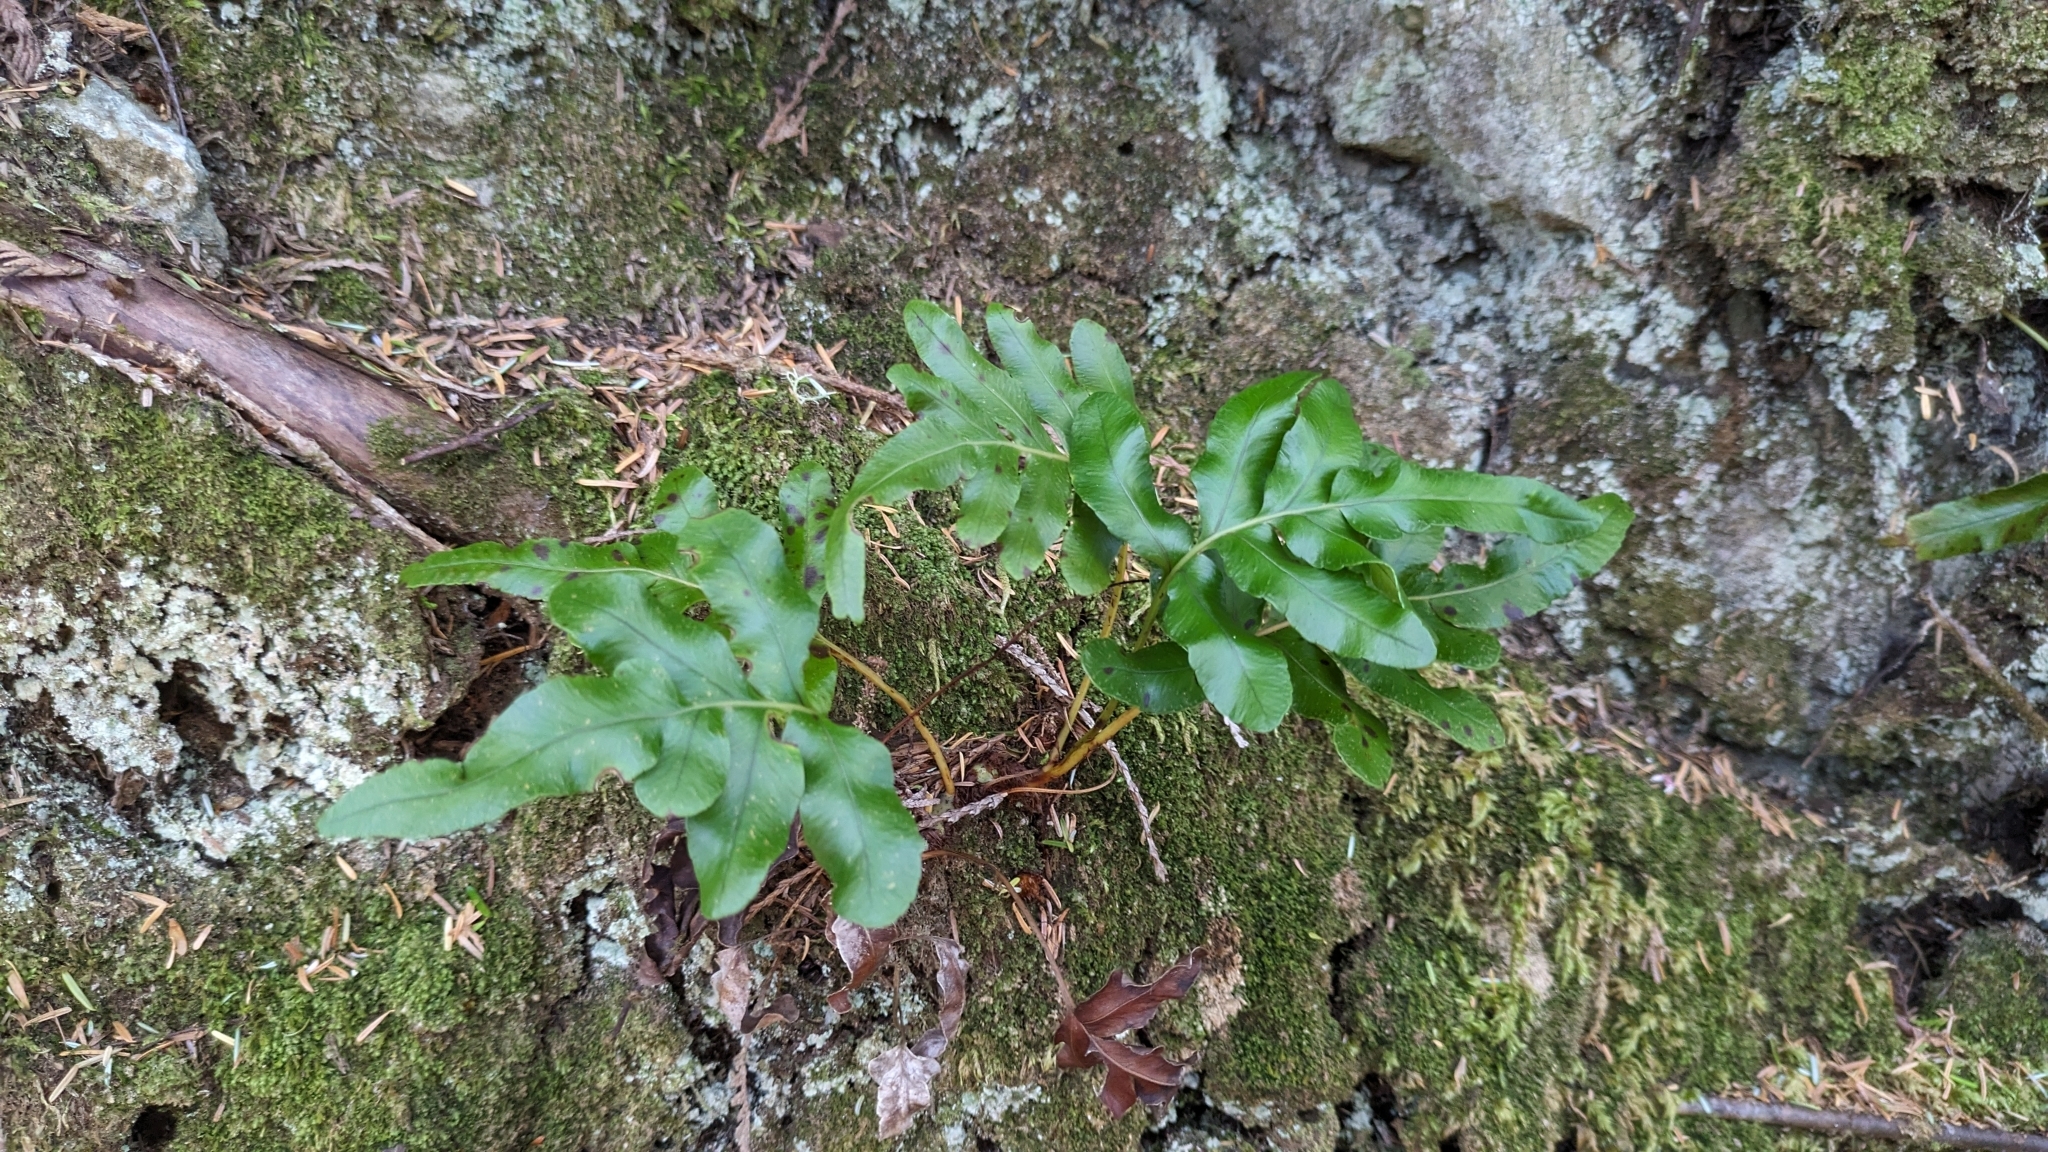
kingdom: Plantae
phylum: Tracheophyta
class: Polypodiopsida
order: Polypodiales
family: Polypodiaceae
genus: Polypodium
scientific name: Polypodium scouleri
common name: Scouler's polypody
